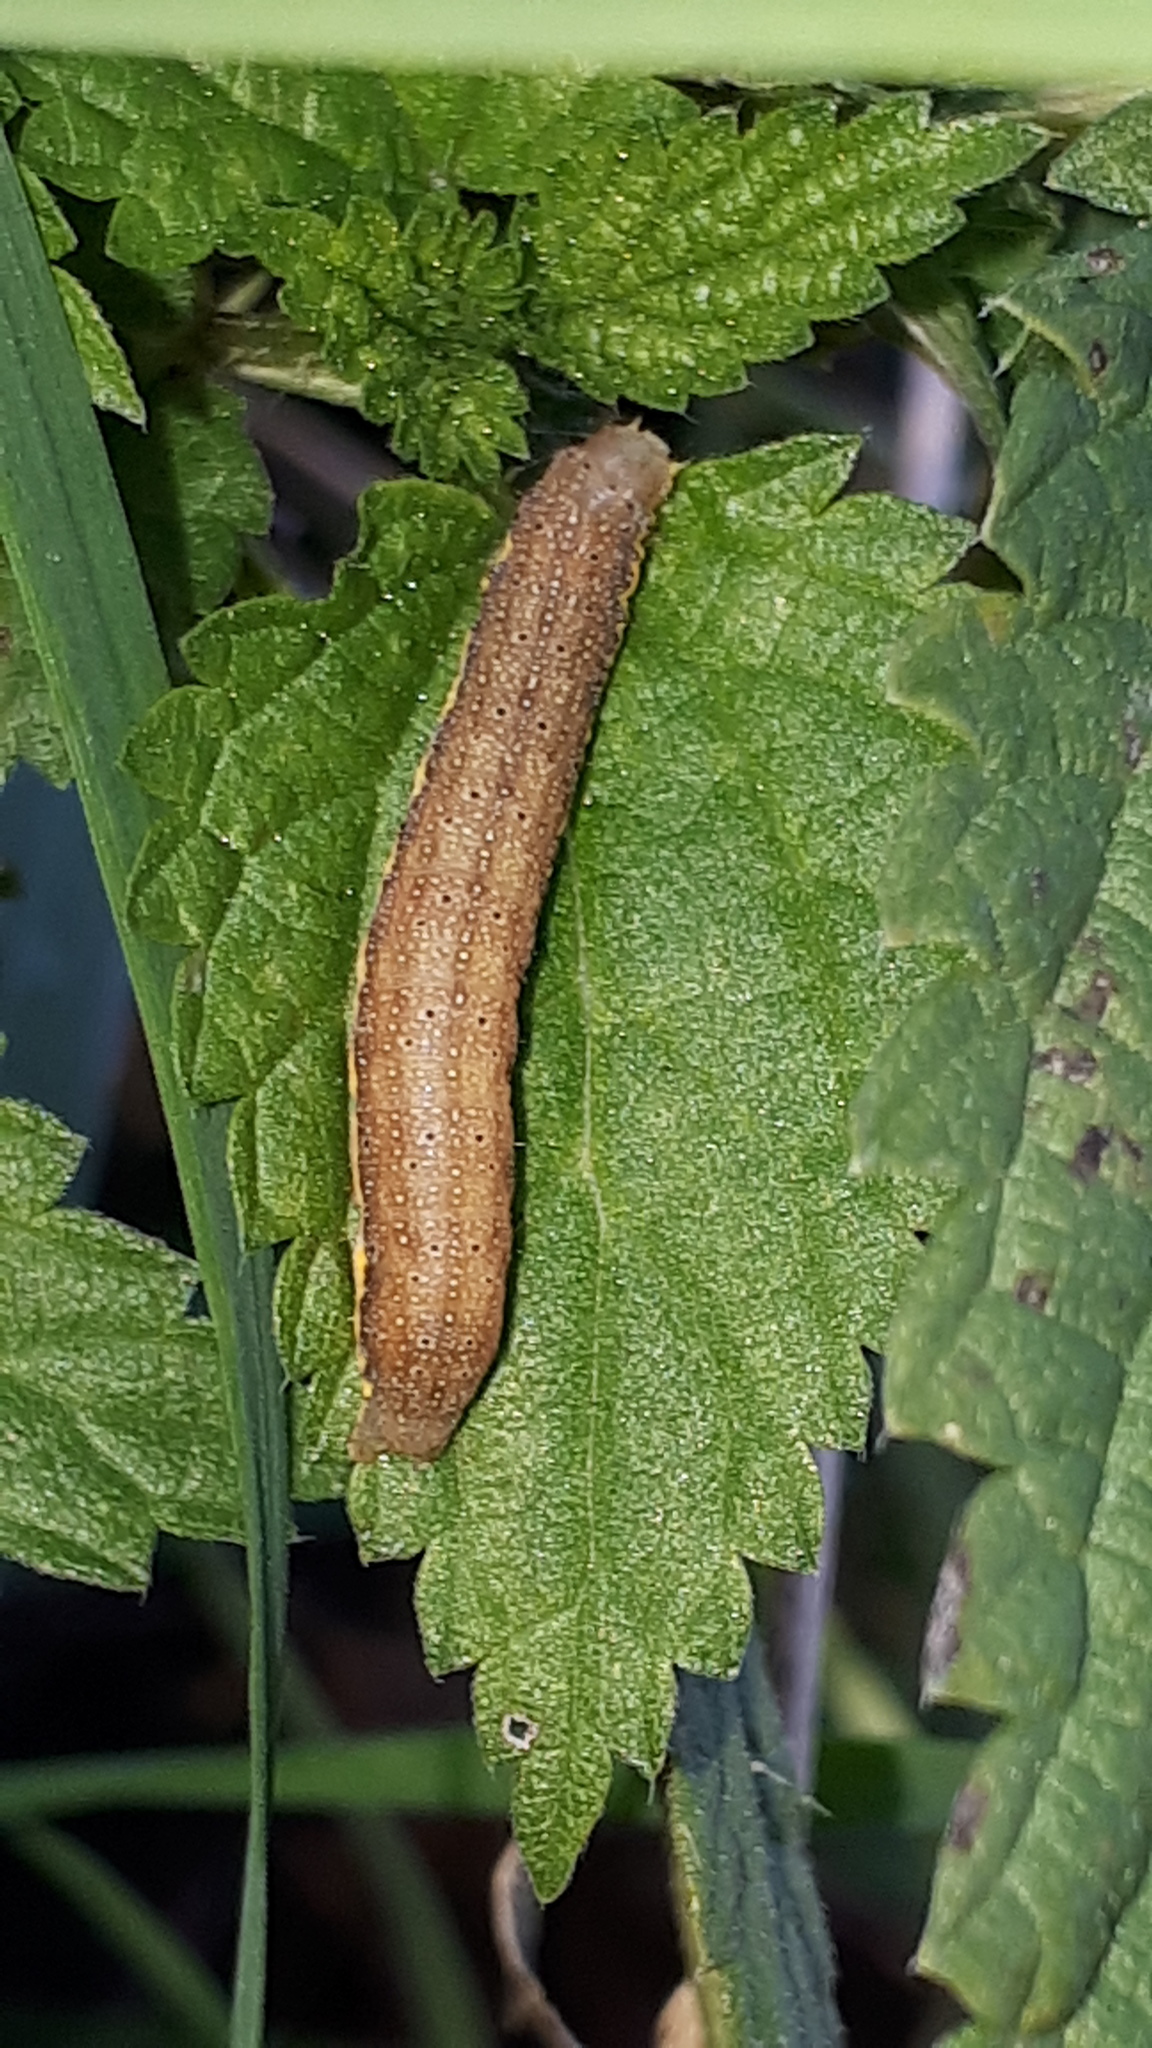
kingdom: Animalia
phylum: Arthropoda
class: Insecta
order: Lepidoptera
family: Noctuidae
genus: Lacanobia
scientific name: Lacanobia oleracea
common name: Bright-line brown-eye
